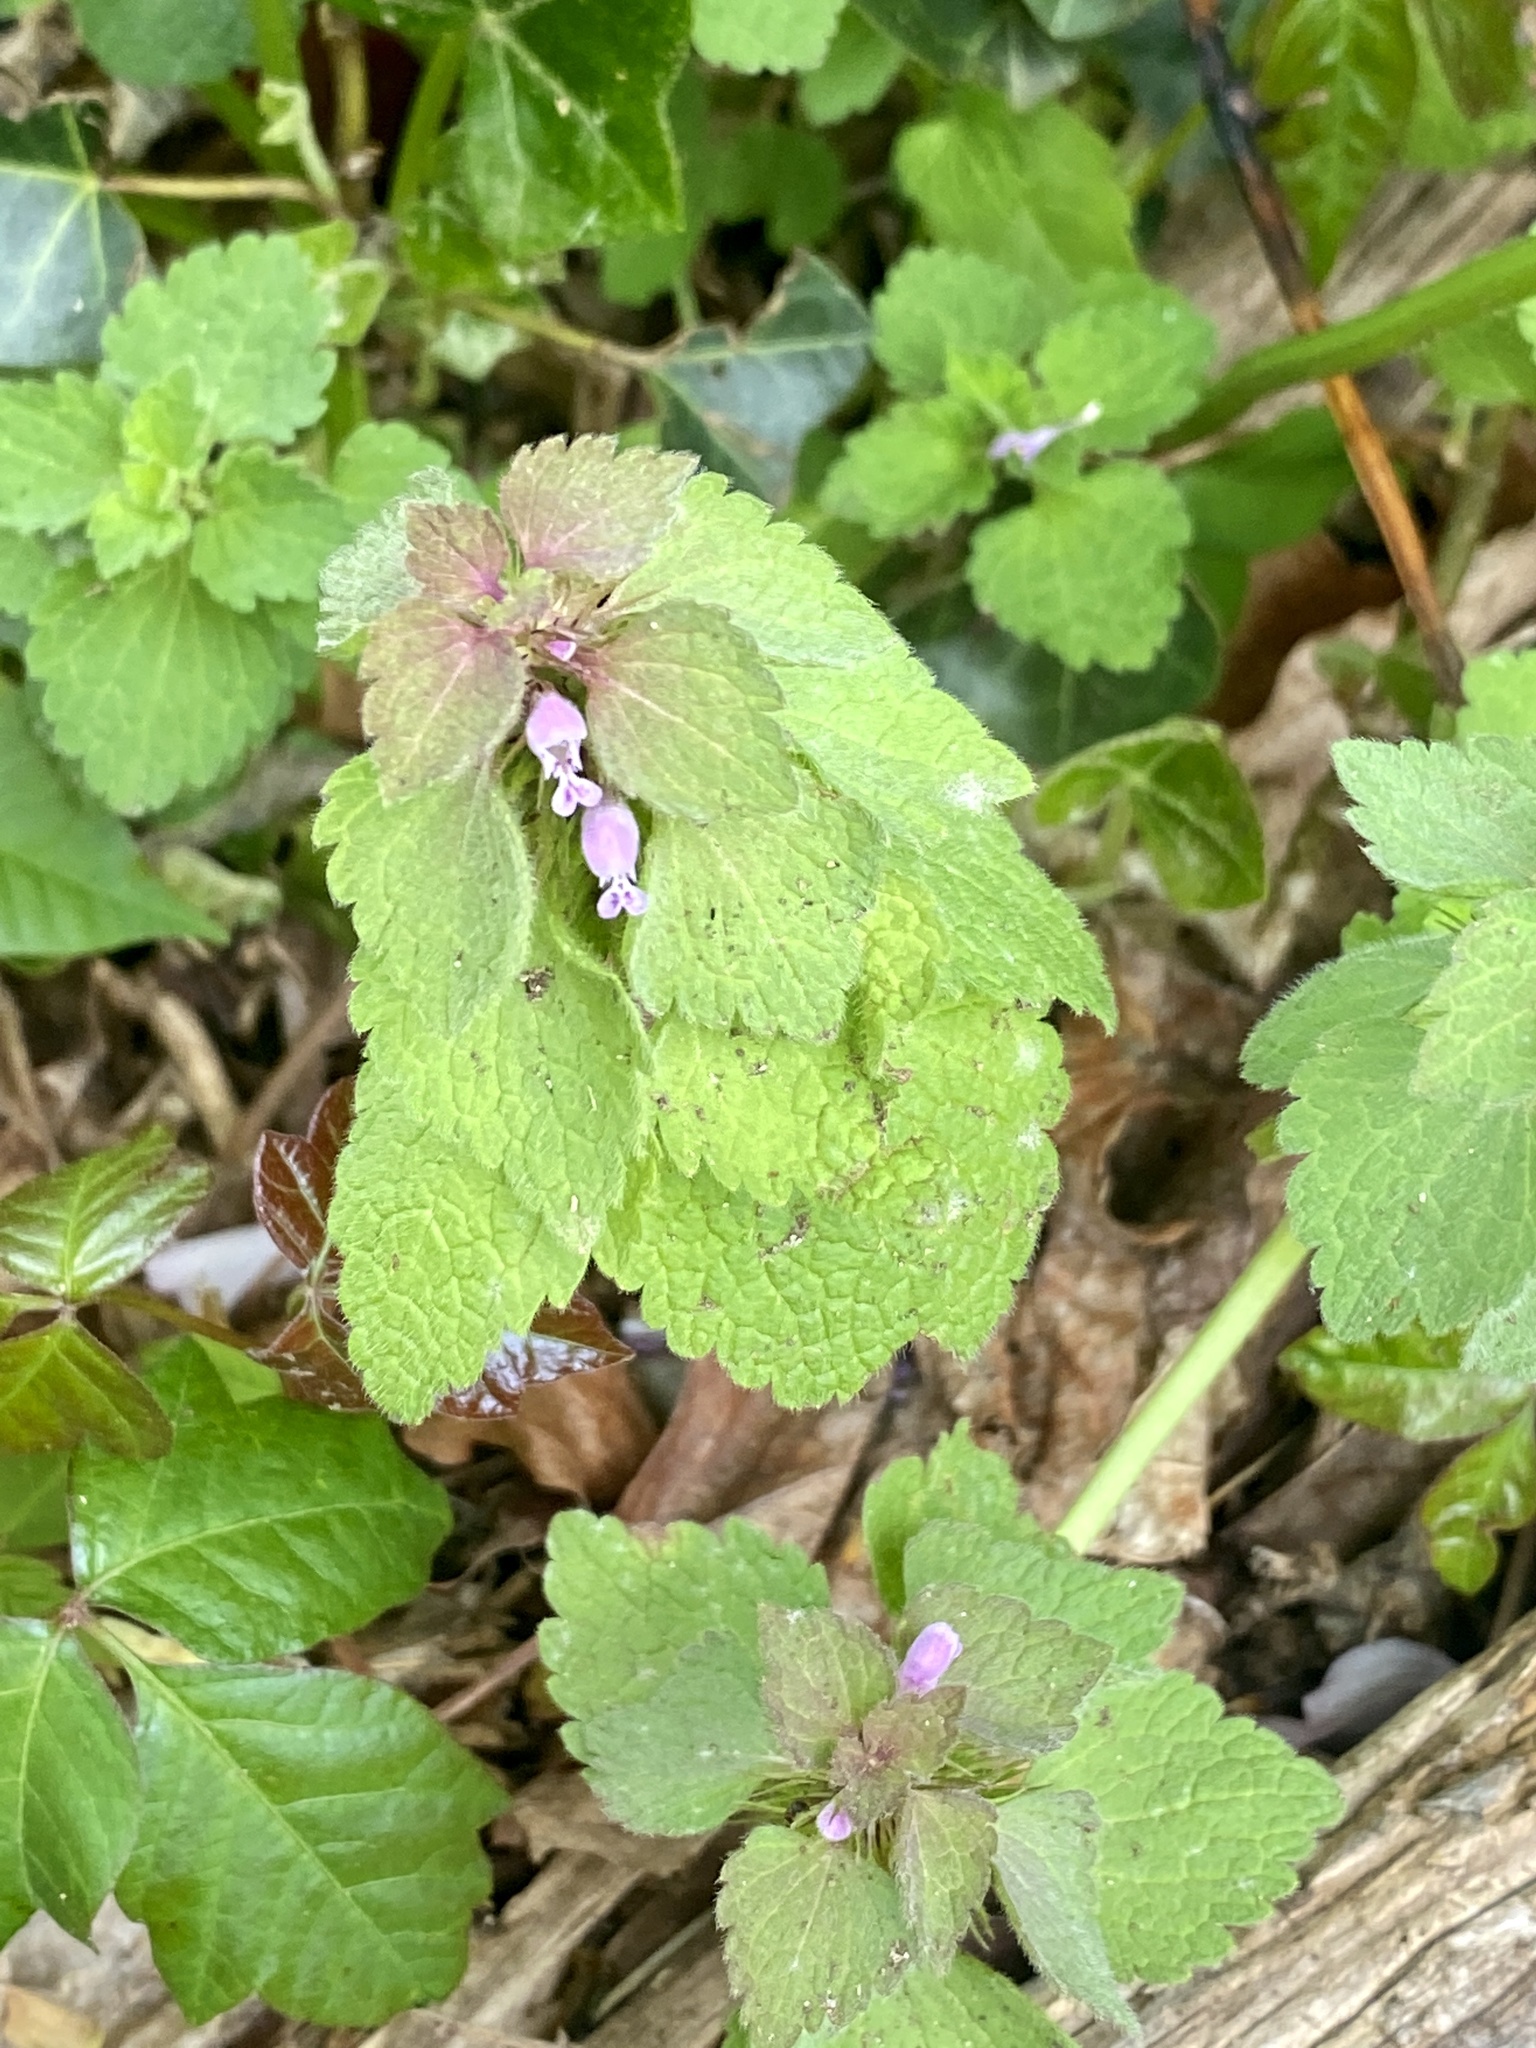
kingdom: Plantae
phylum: Tracheophyta
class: Magnoliopsida
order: Lamiales
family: Lamiaceae
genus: Lamium
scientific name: Lamium purpureum
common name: Red dead-nettle
